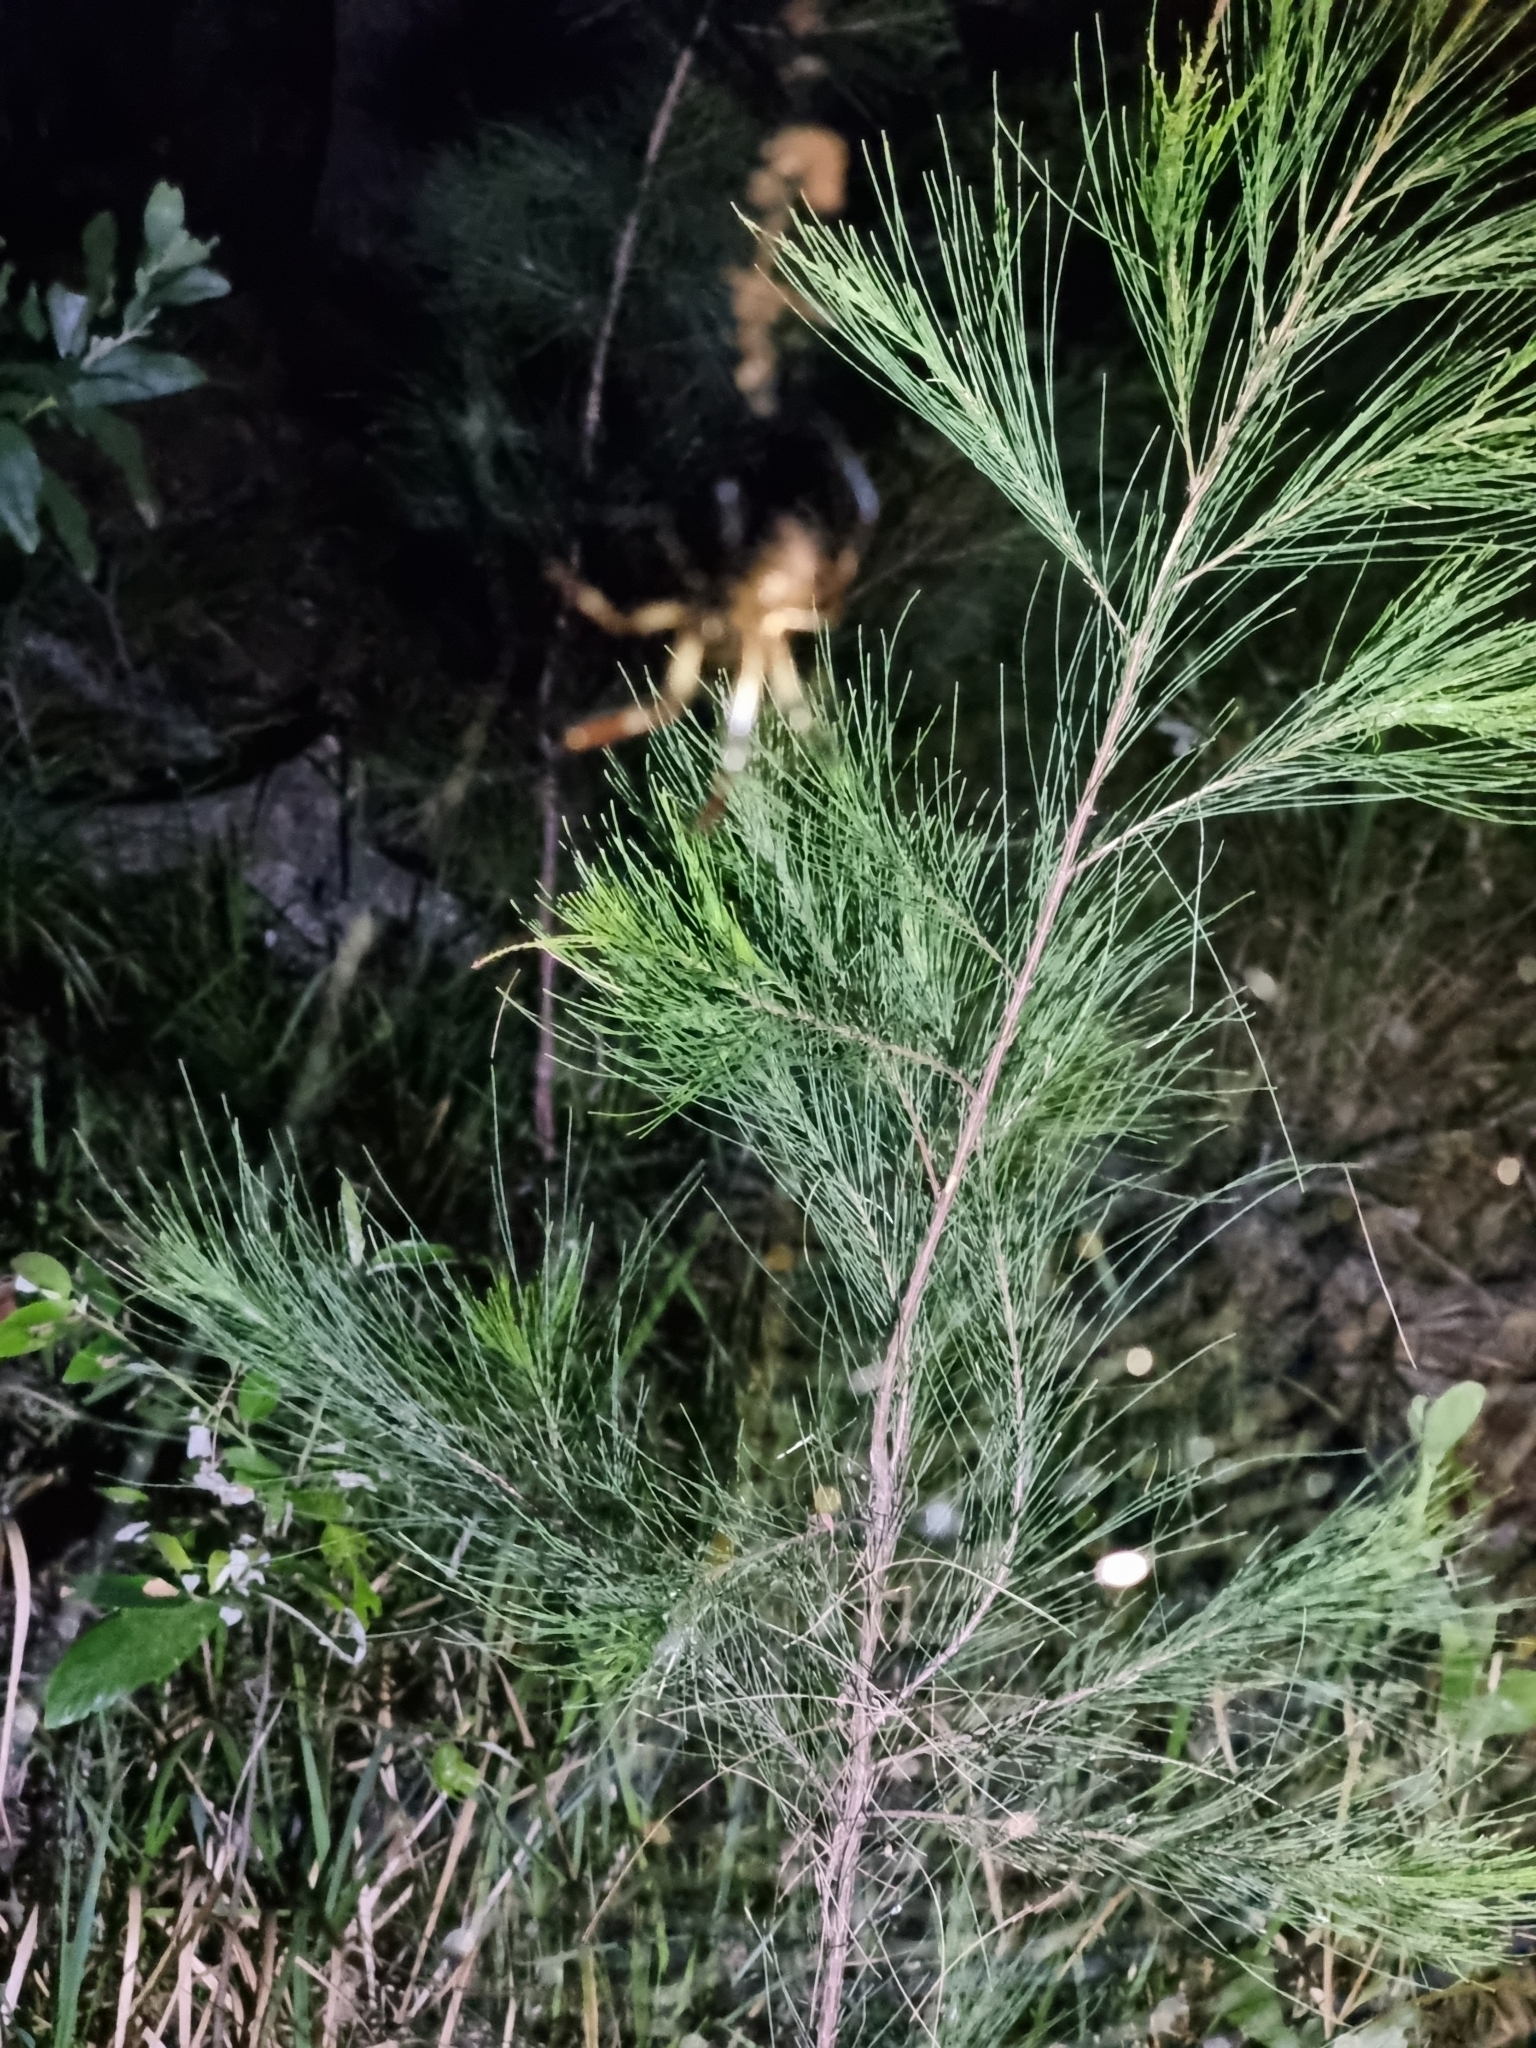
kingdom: Animalia
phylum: Arthropoda
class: Arachnida
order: Araneae
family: Araneidae
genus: Trichonephila
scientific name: Trichonephila edulis
